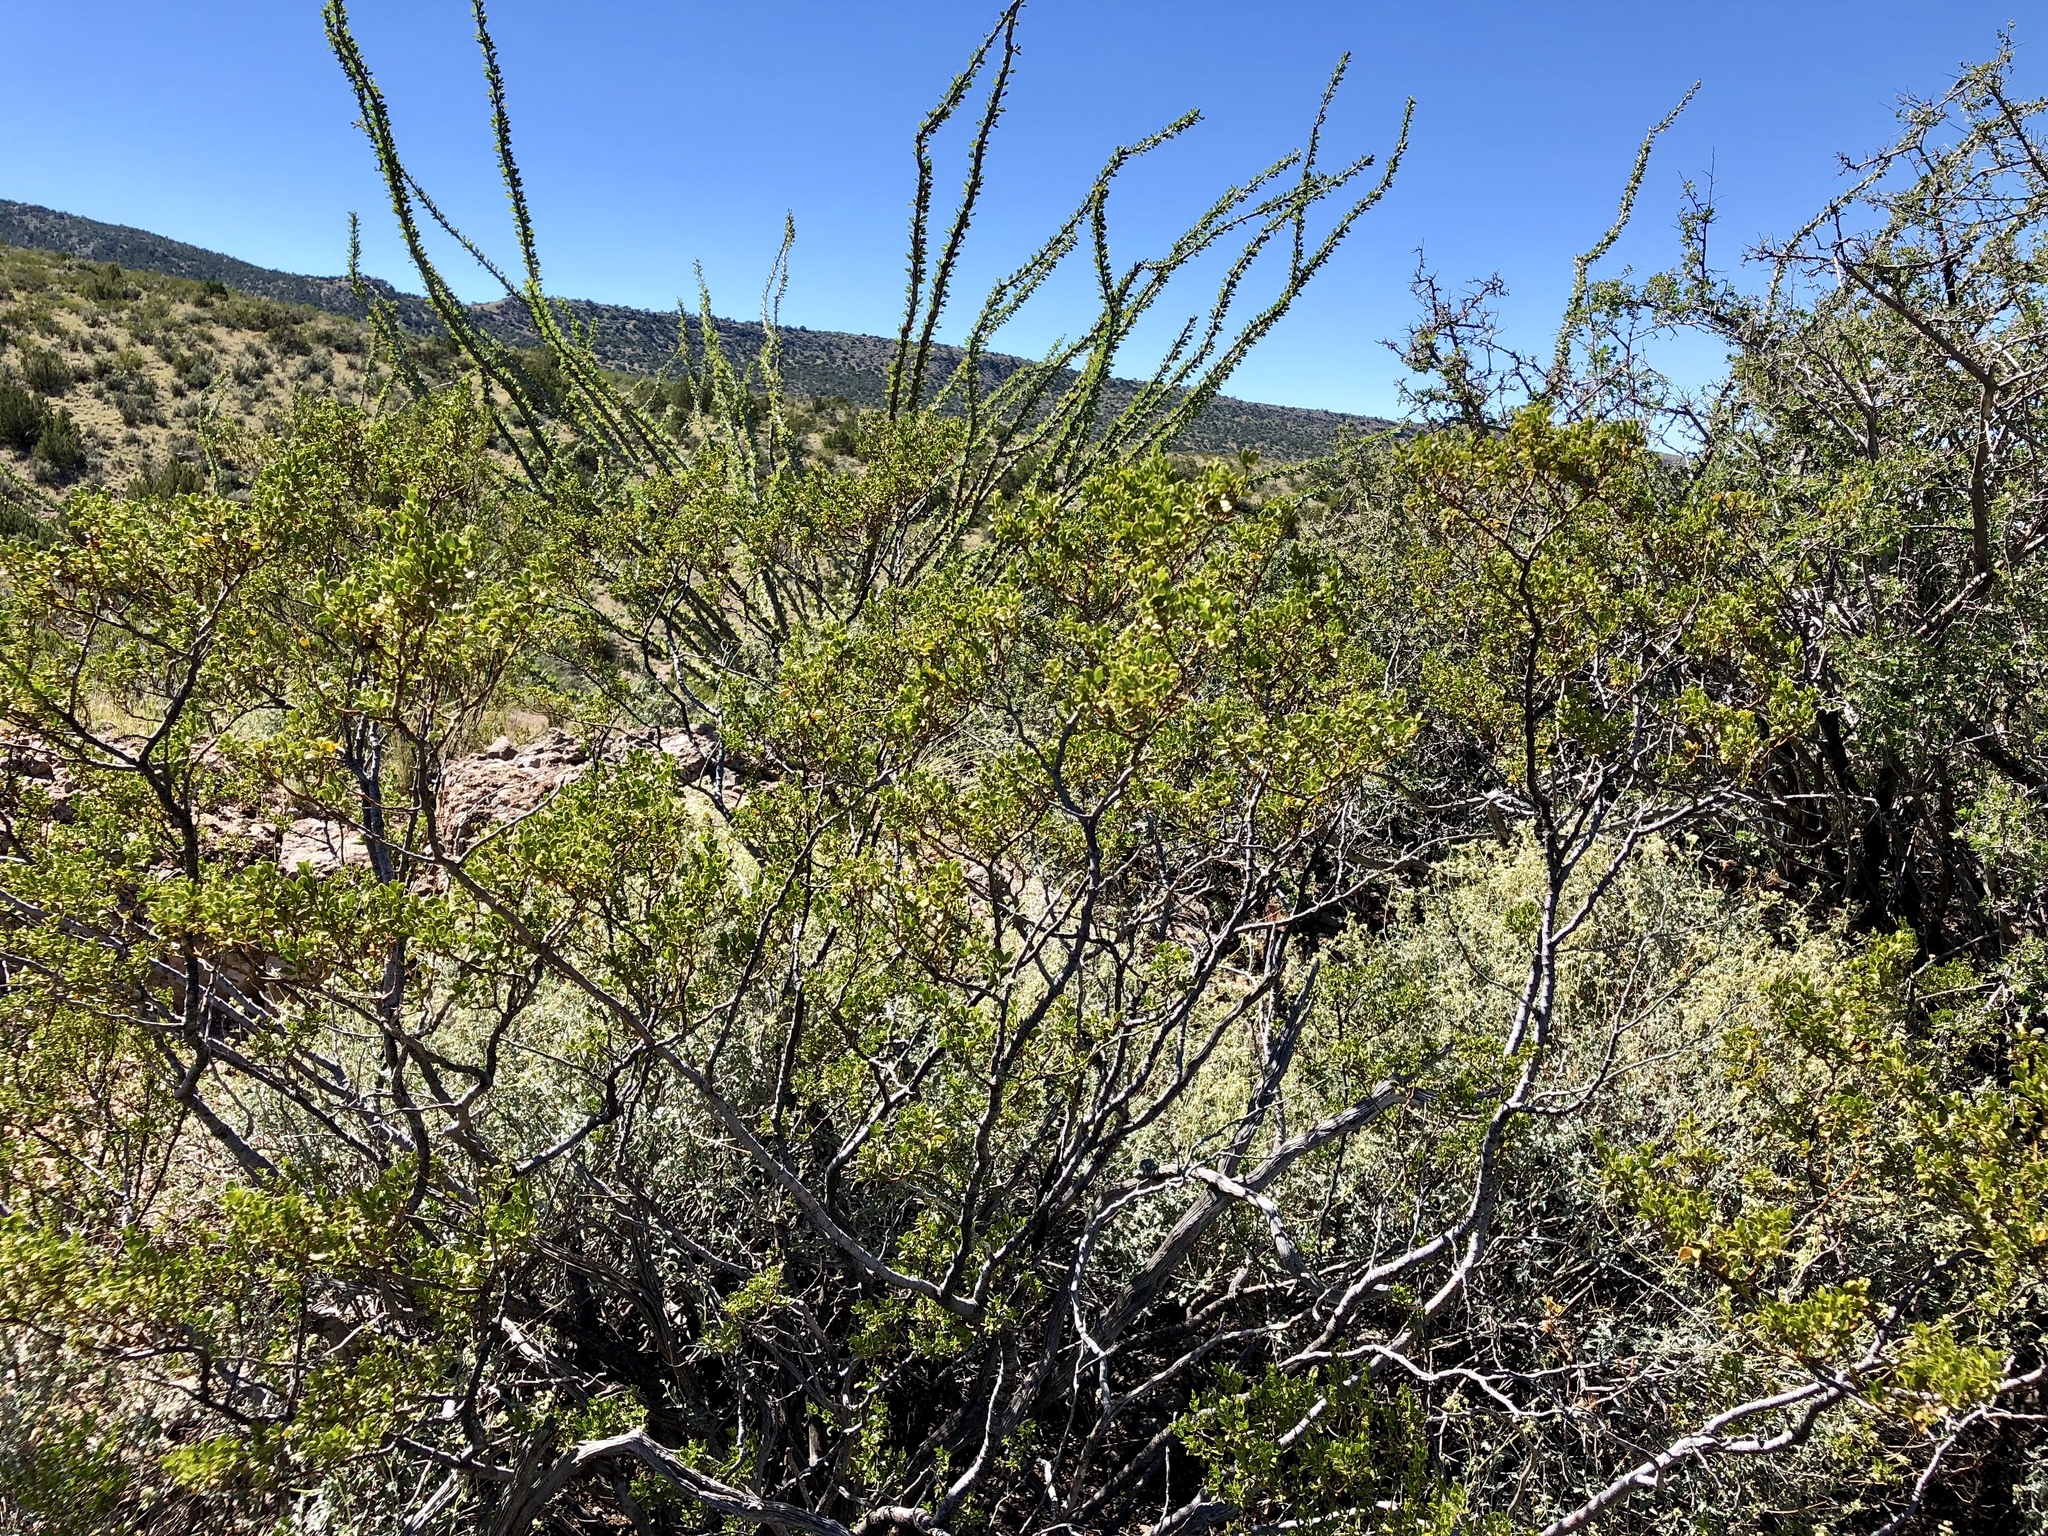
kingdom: Plantae
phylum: Tracheophyta
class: Magnoliopsida
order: Zygophyllales
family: Zygophyllaceae
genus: Larrea
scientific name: Larrea tridentata
